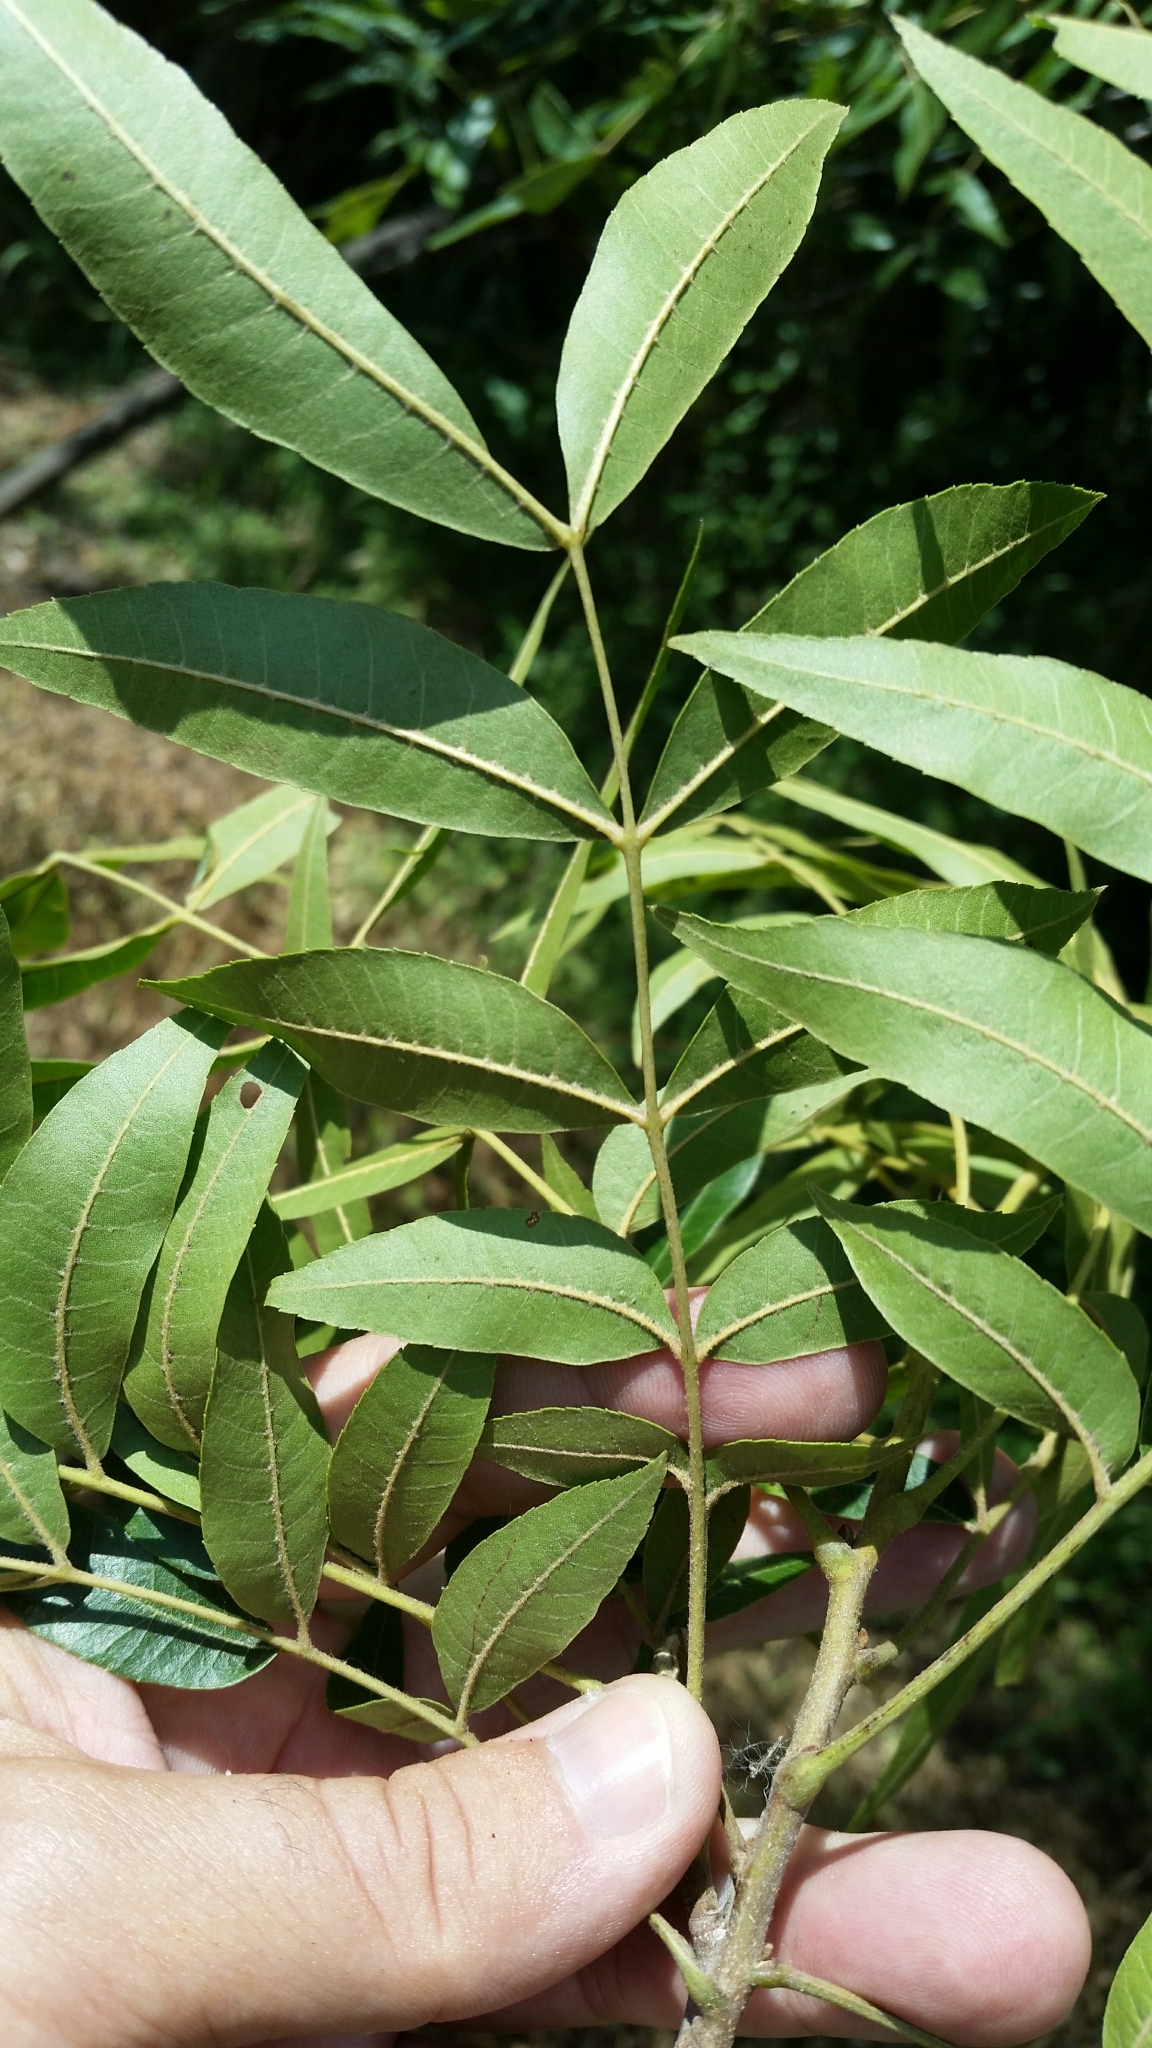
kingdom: Plantae
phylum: Tracheophyta
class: Magnoliopsida
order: Fagales
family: Juglandaceae
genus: Carya
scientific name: Carya aquatica
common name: Water hickory
